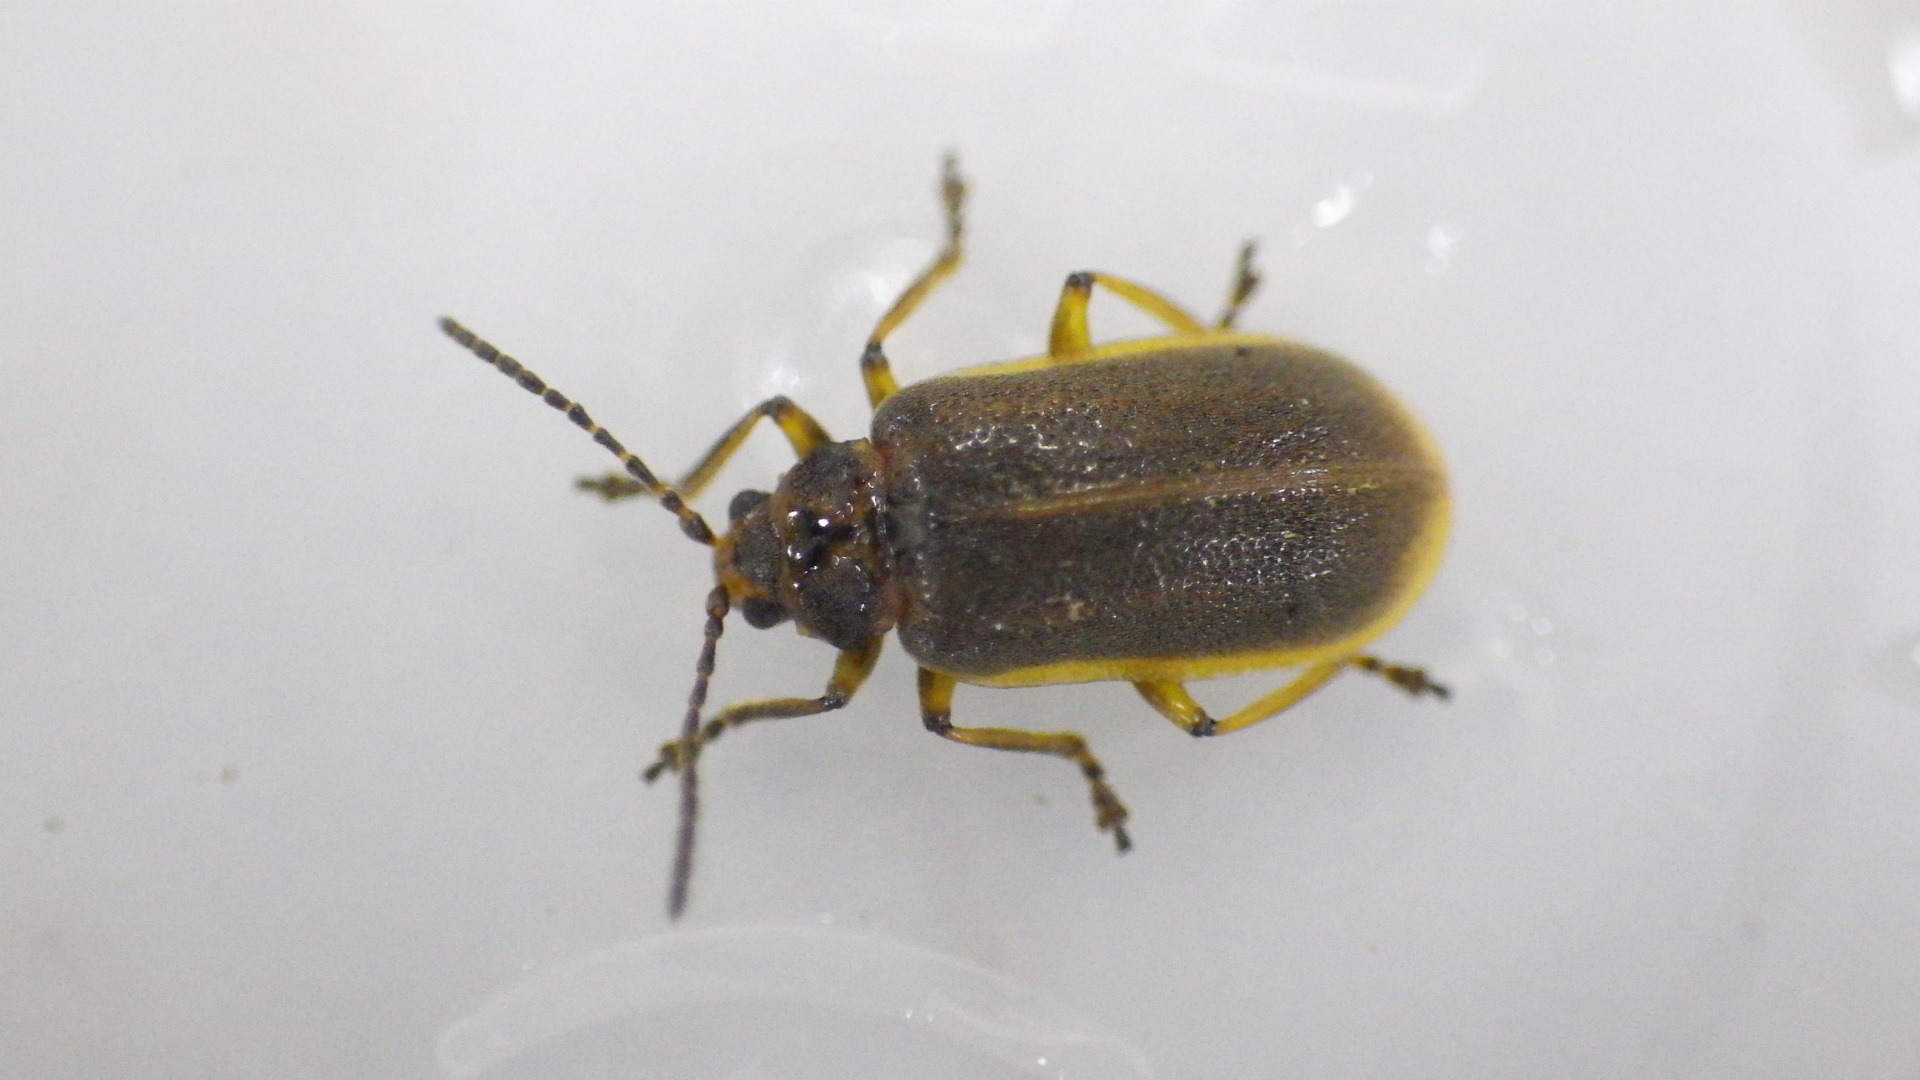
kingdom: Animalia
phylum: Arthropoda
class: Insecta
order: Coleoptera
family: Chrysomelidae
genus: Galerucella
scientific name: Galerucella nymphaeae
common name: Leaf beetle
